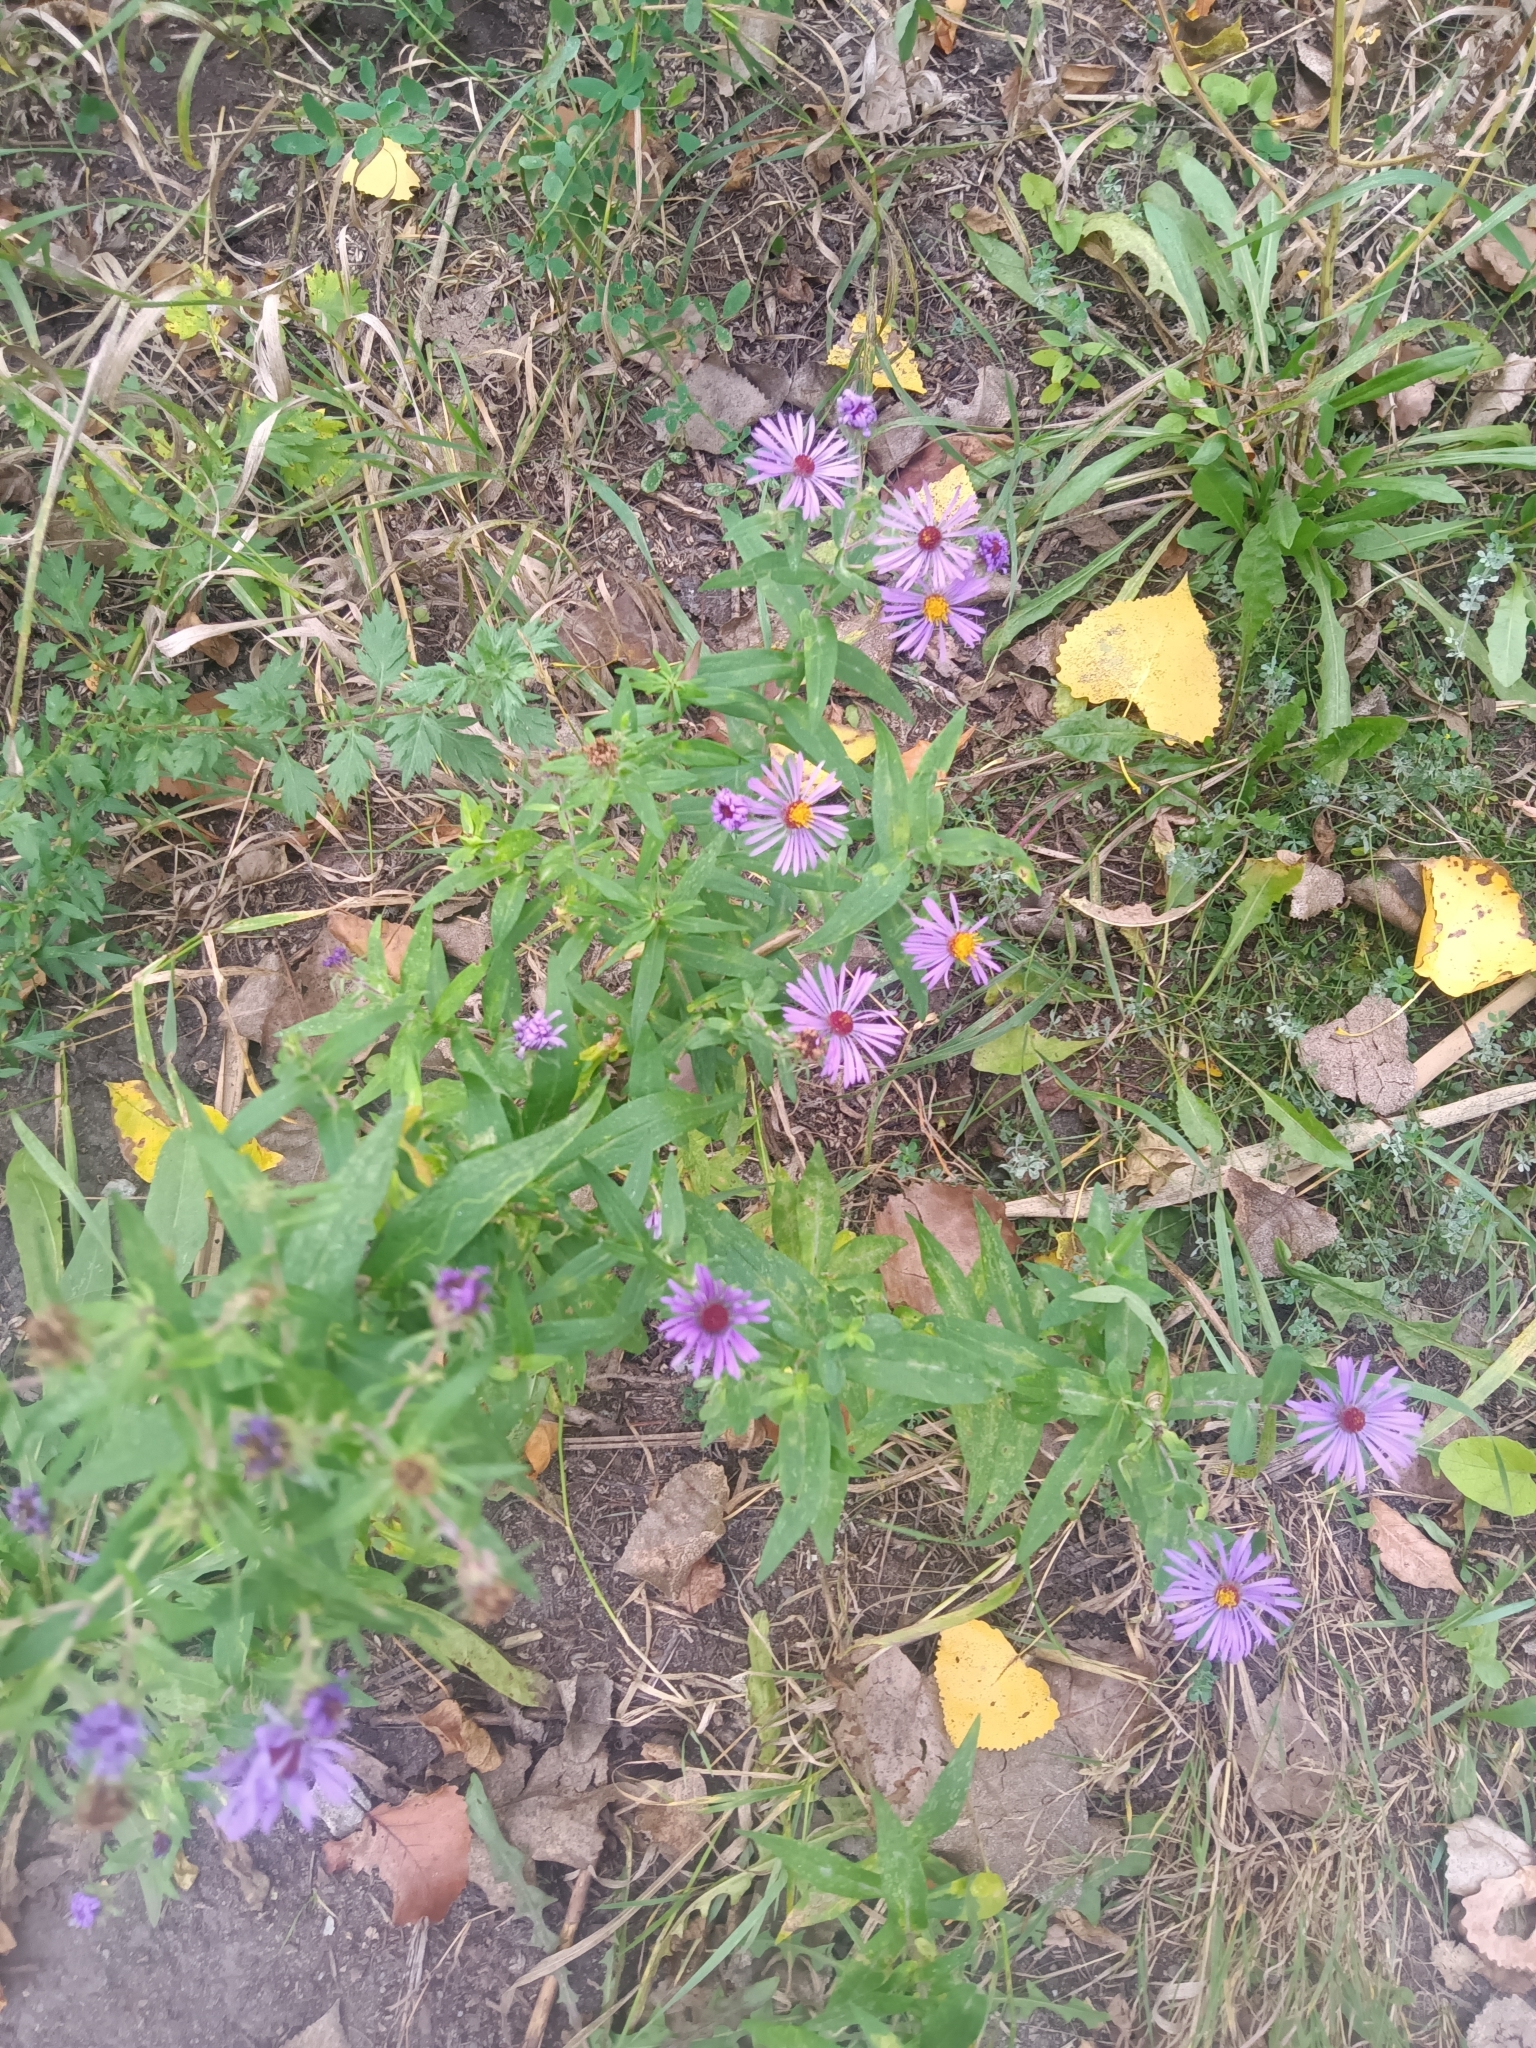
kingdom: Plantae
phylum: Tracheophyta
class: Magnoliopsida
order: Asterales
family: Asteraceae
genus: Symphyotrichum
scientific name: Symphyotrichum novae-angliae
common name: Michaelmas daisy
